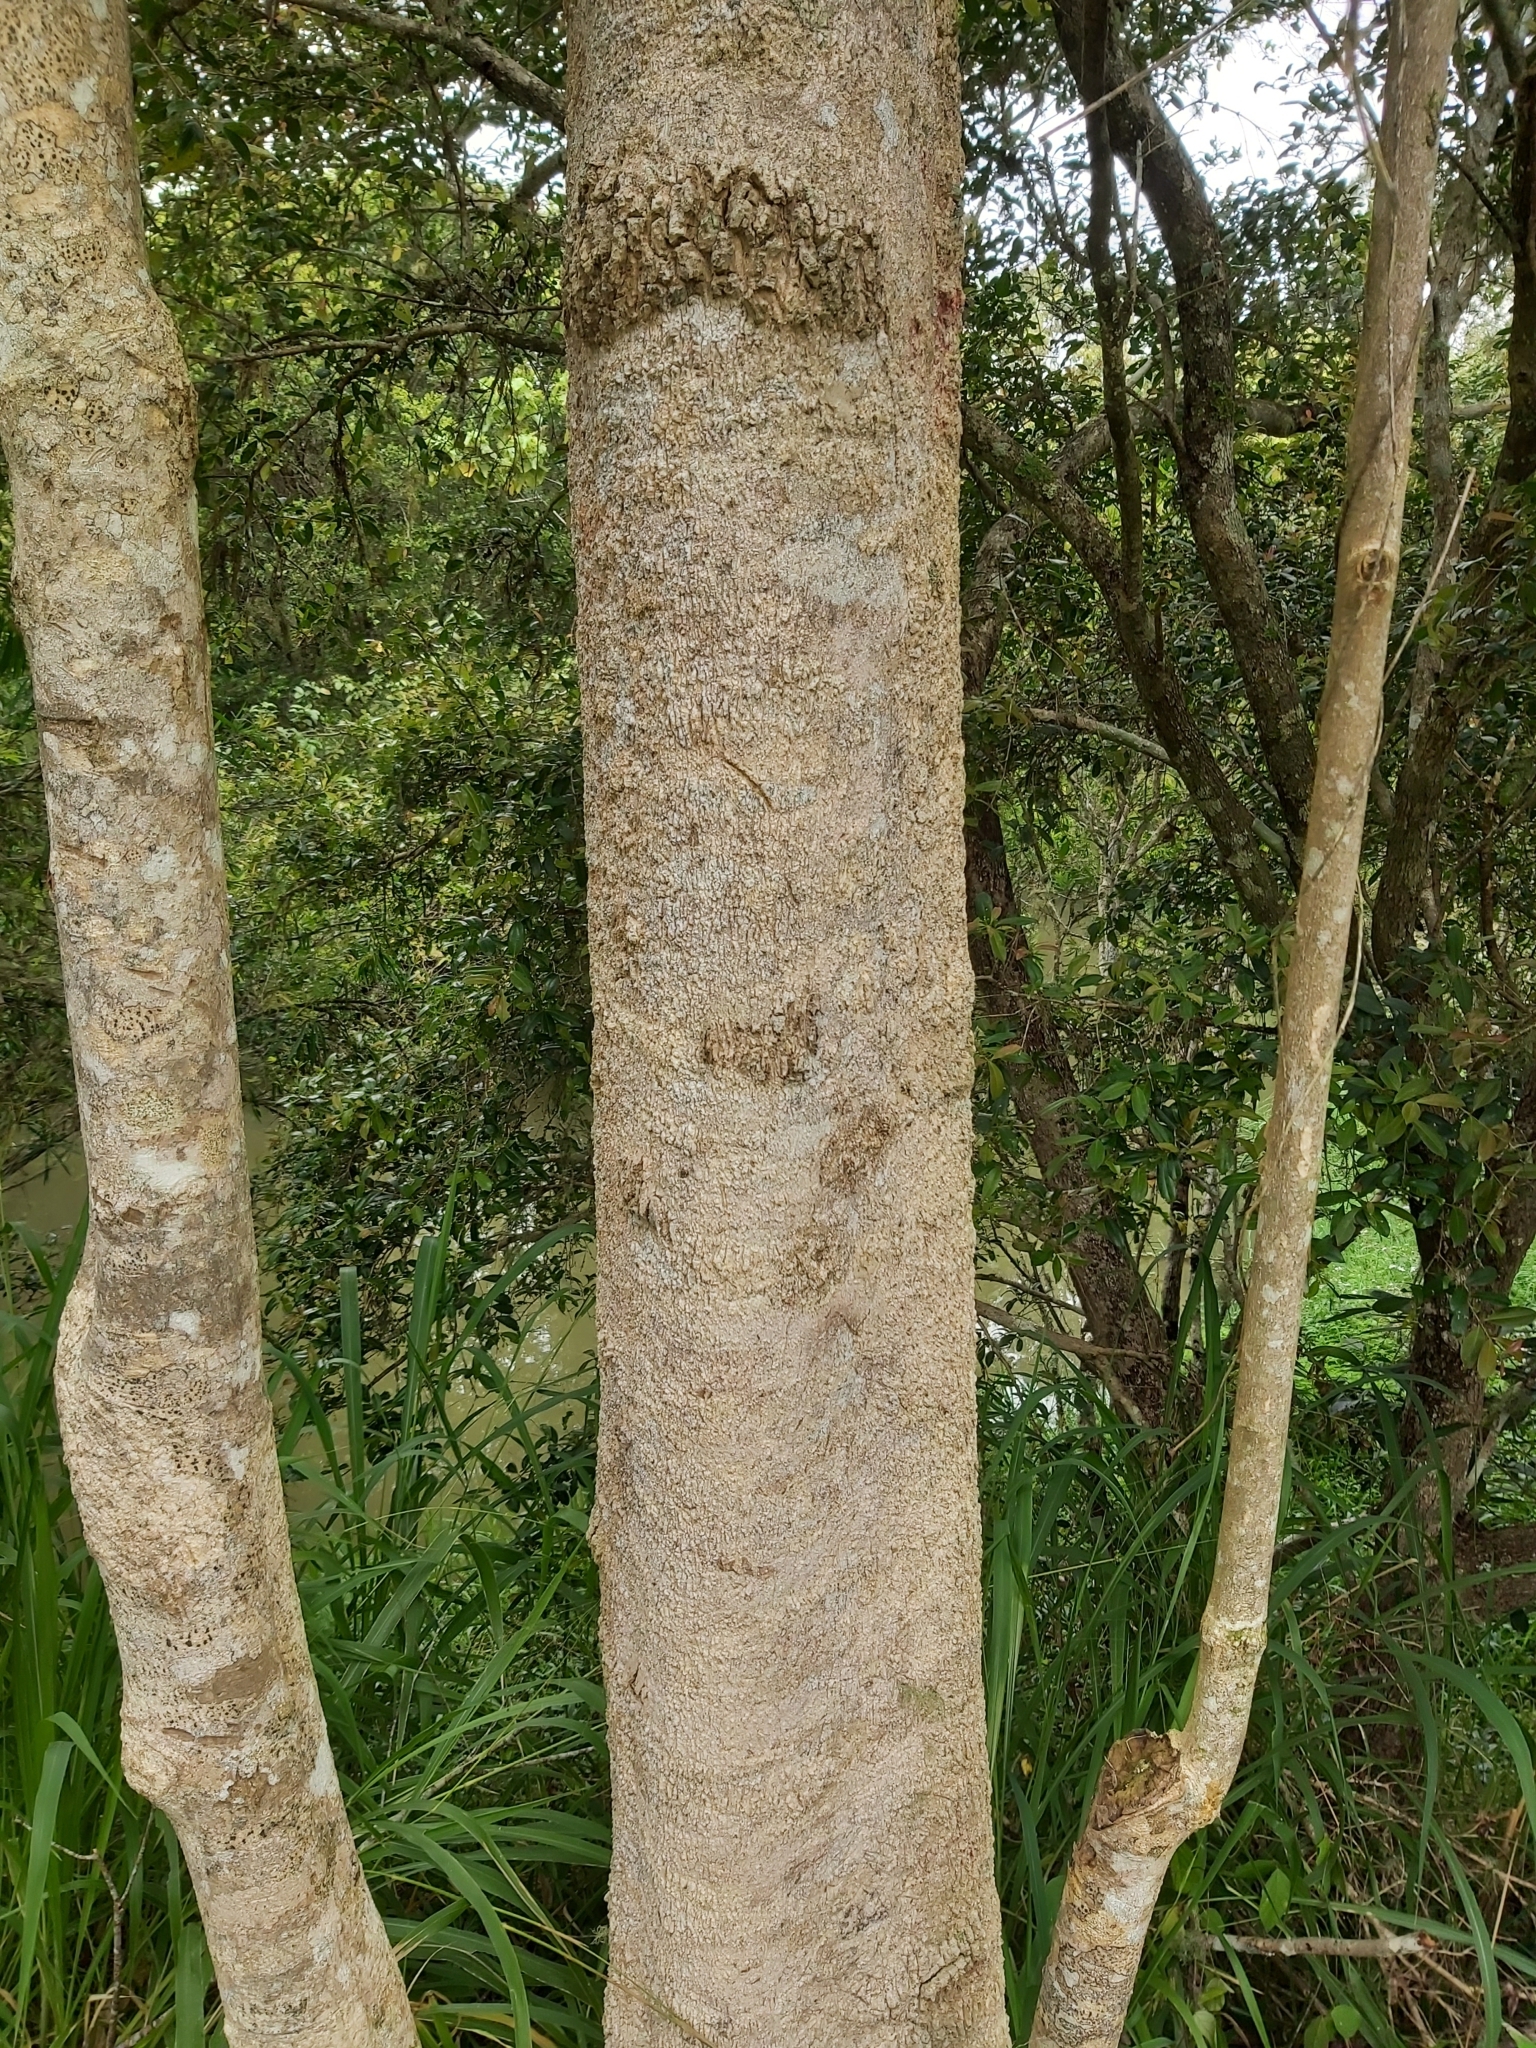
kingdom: Plantae
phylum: Tracheophyta
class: Magnoliopsida
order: Sapindales
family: Rutaceae
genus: Melicope
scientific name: Melicope elleryana
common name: Pink euodia
